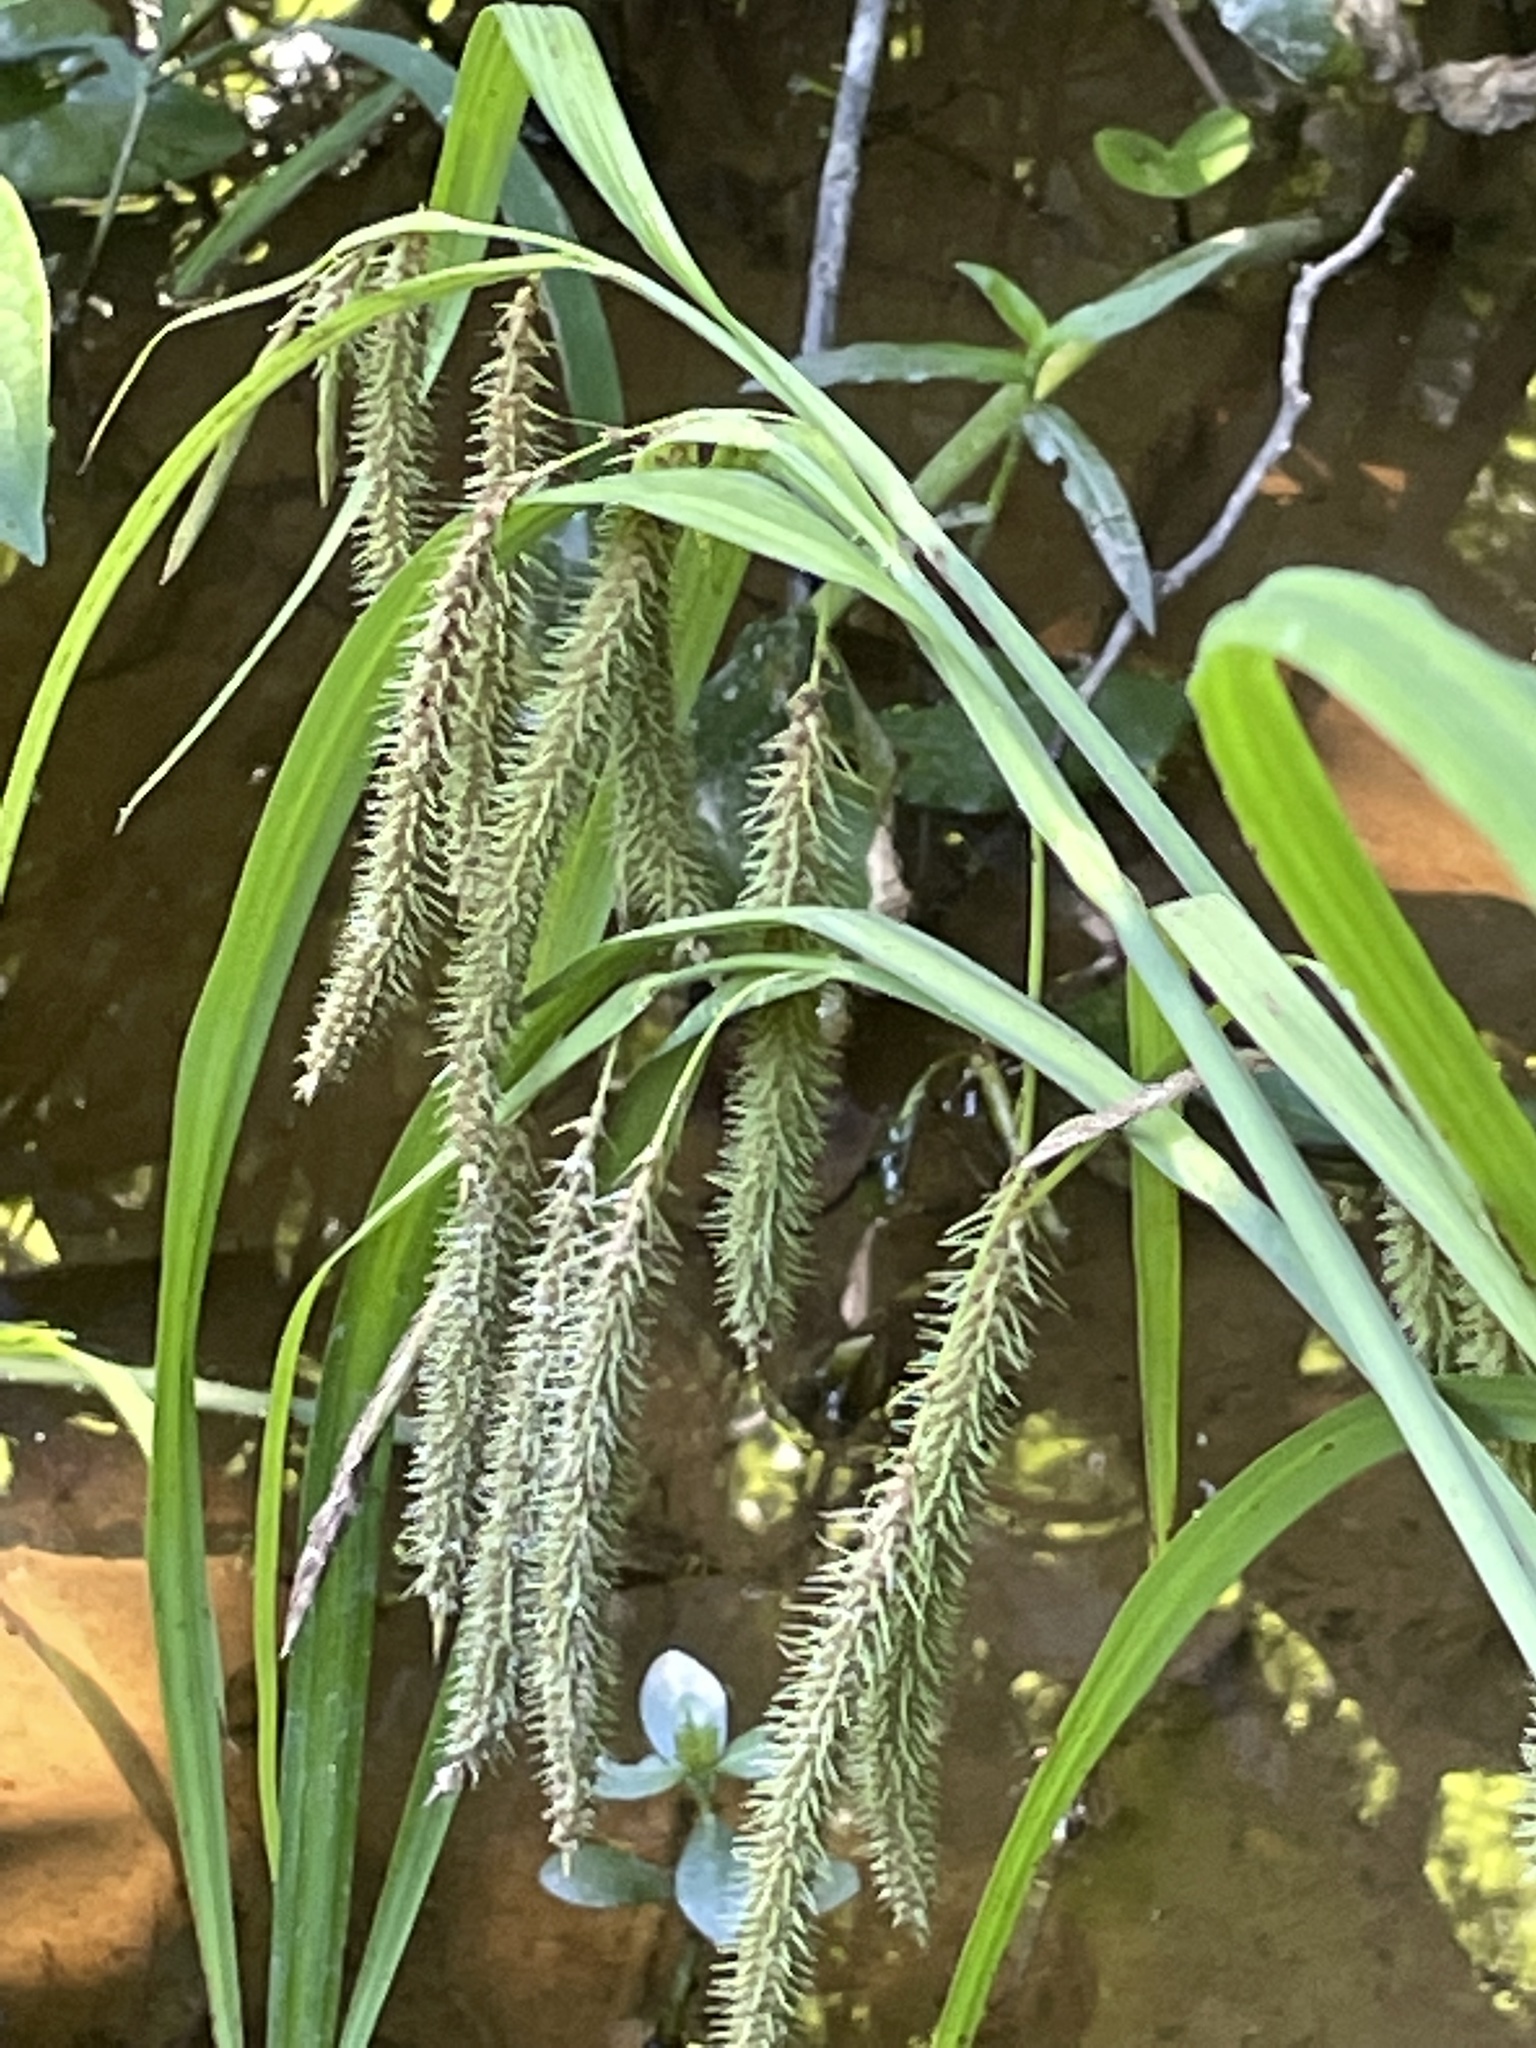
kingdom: Plantae
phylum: Tracheophyta
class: Liliopsida
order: Poales
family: Cyperaceae
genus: Carex
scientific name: Carex crinita
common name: Fringed sedge
